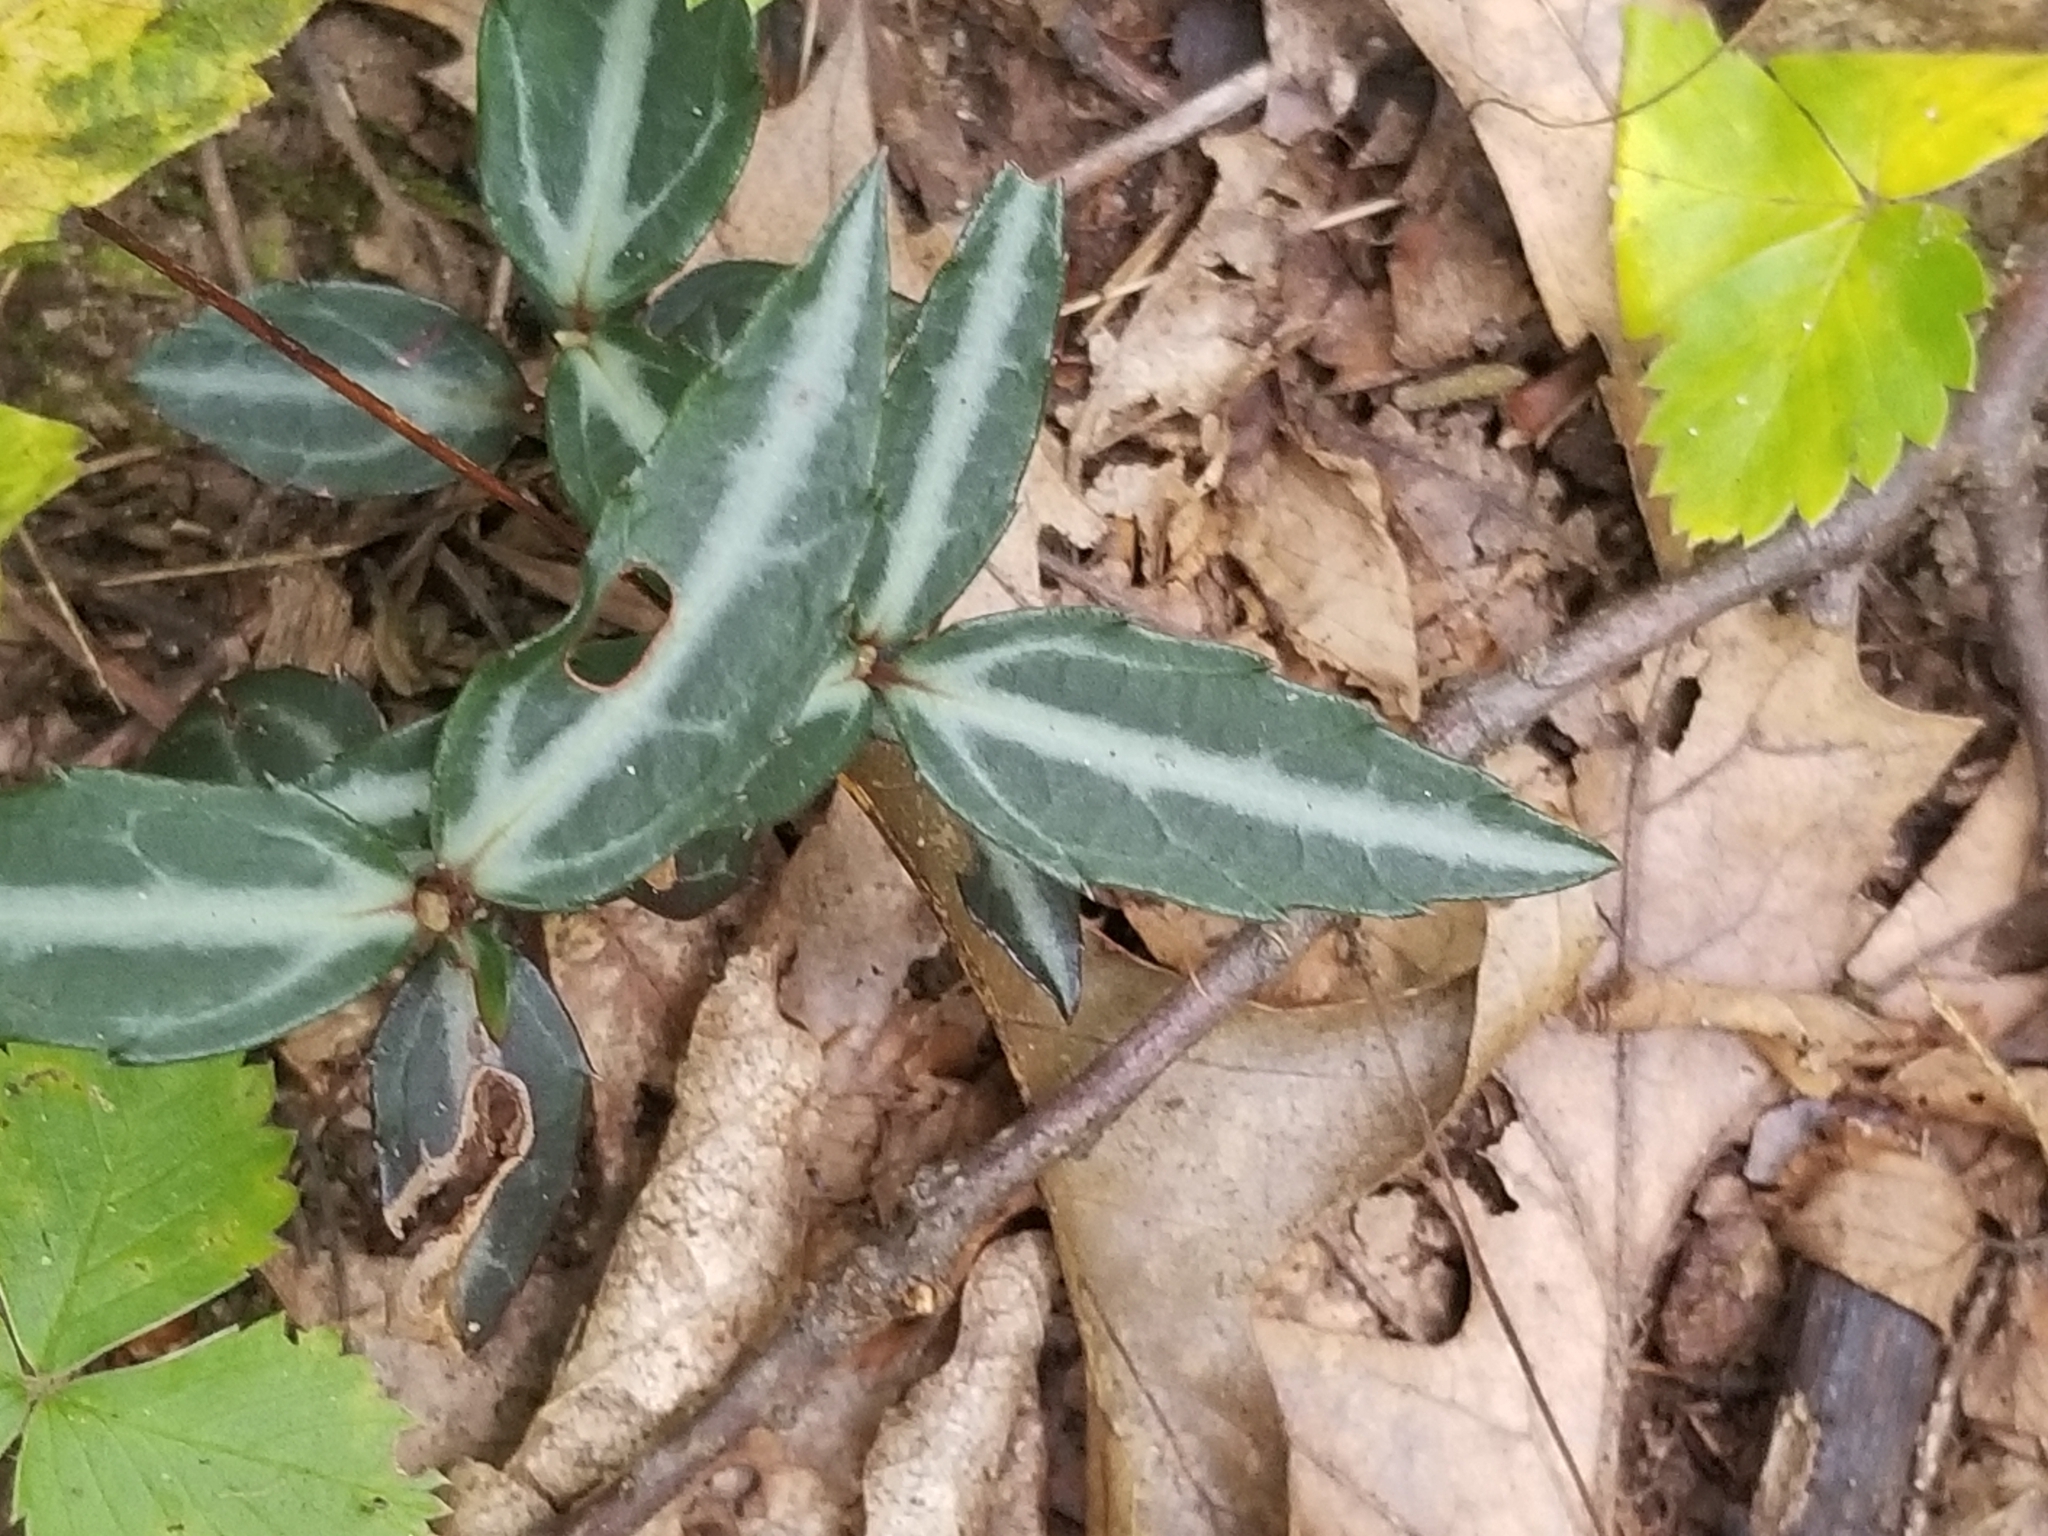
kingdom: Plantae
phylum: Tracheophyta
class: Magnoliopsida
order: Ericales
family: Ericaceae
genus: Chimaphila
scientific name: Chimaphila maculata
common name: Spotted pipsissewa
